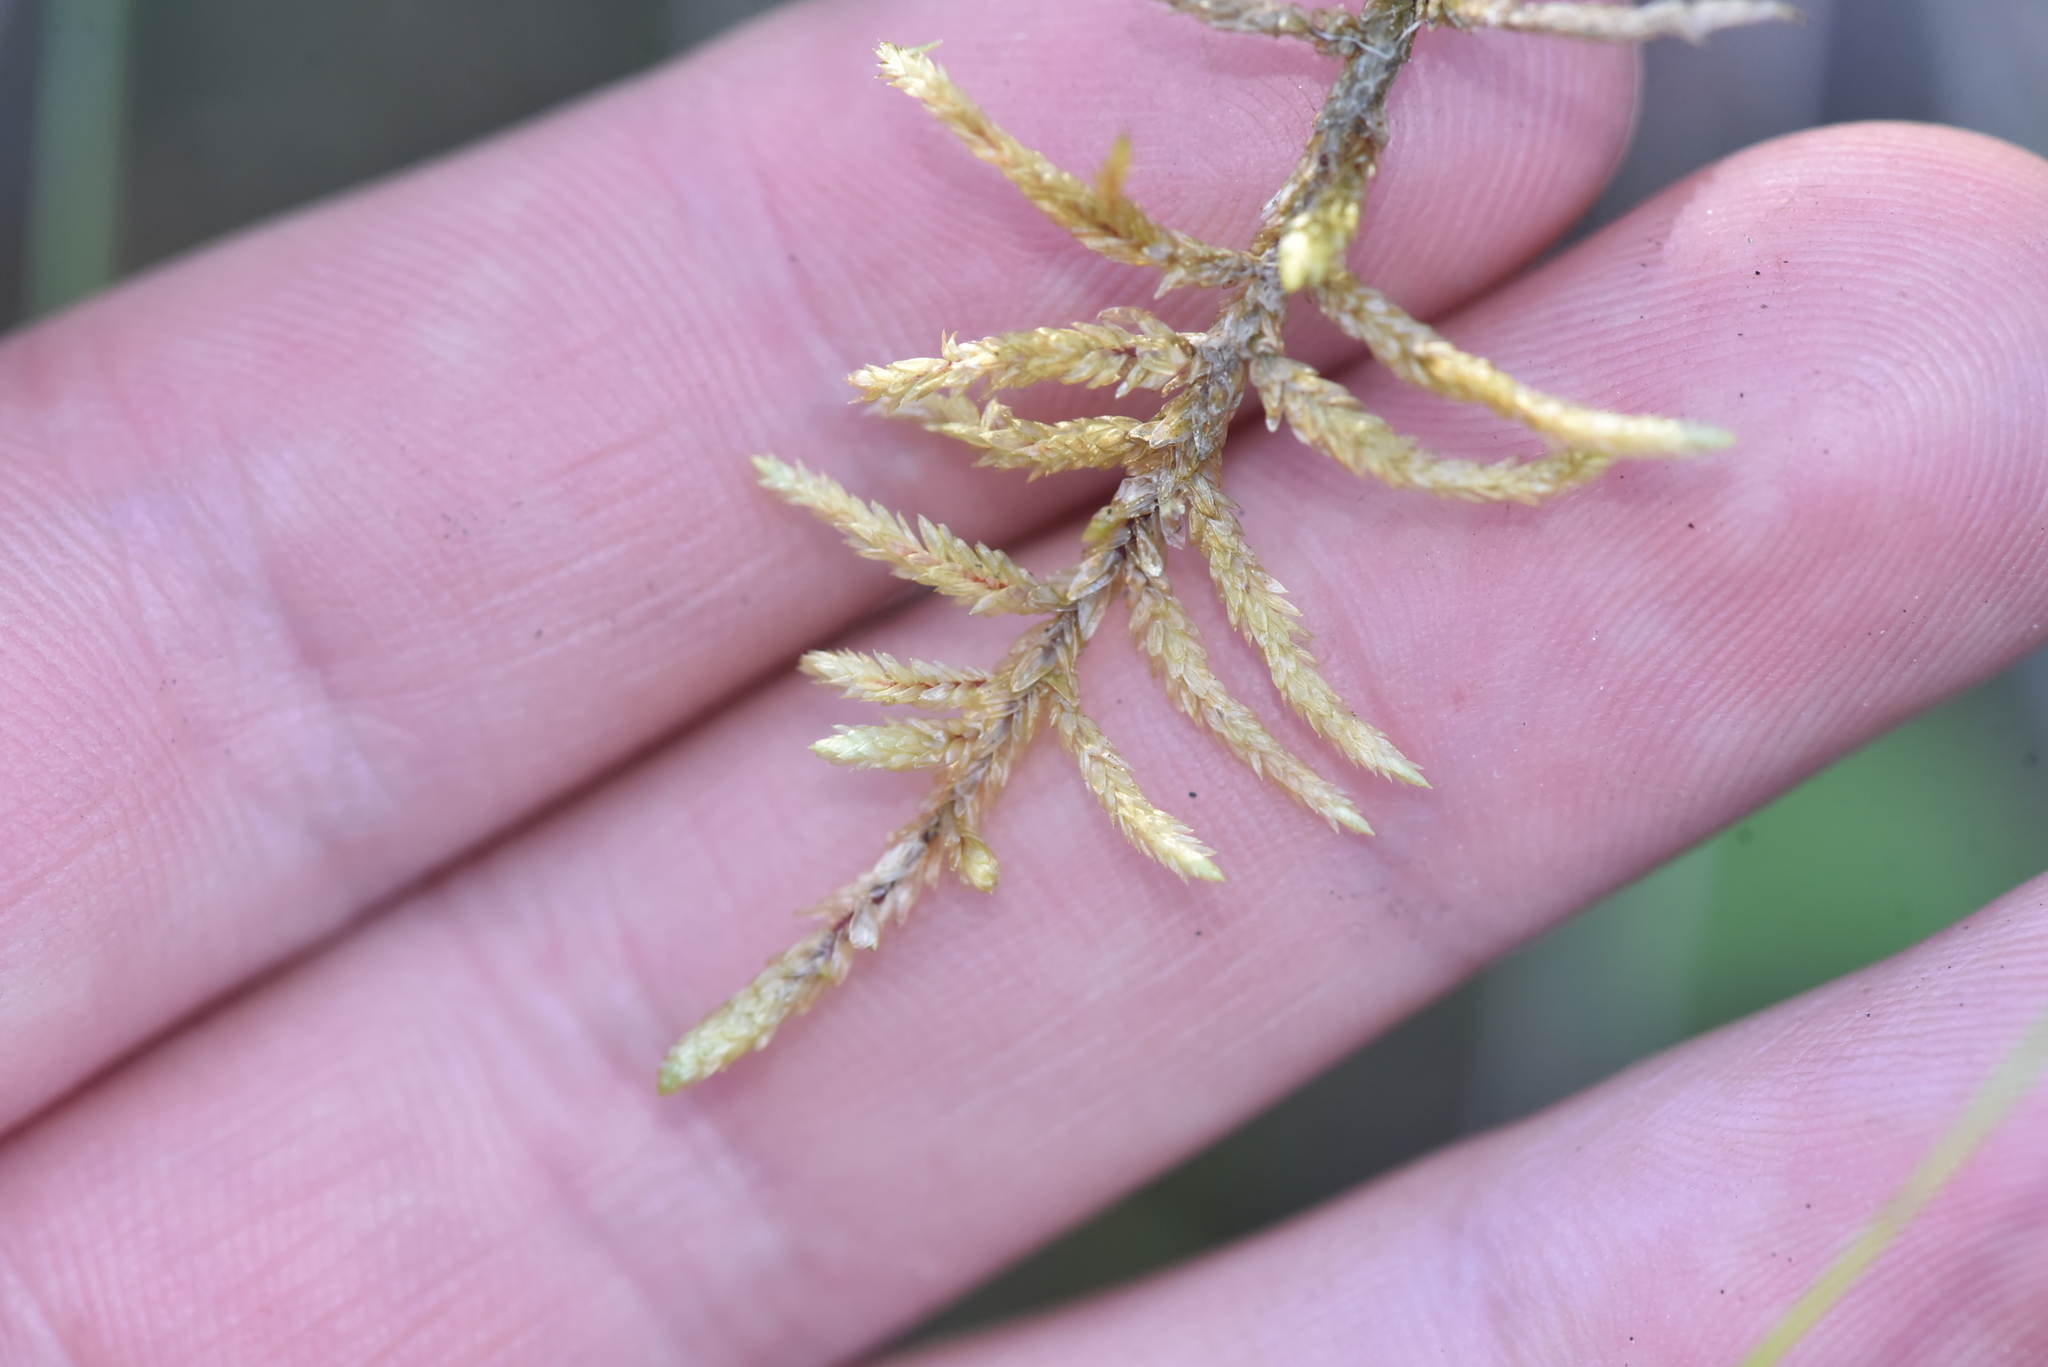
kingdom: Plantae
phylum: Bryophyta
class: Bryopsida
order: Hypnales
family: Hylocomiaceae
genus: Pleurozium
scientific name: Pleurozium schreberi
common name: Red-stemmed feather moss
